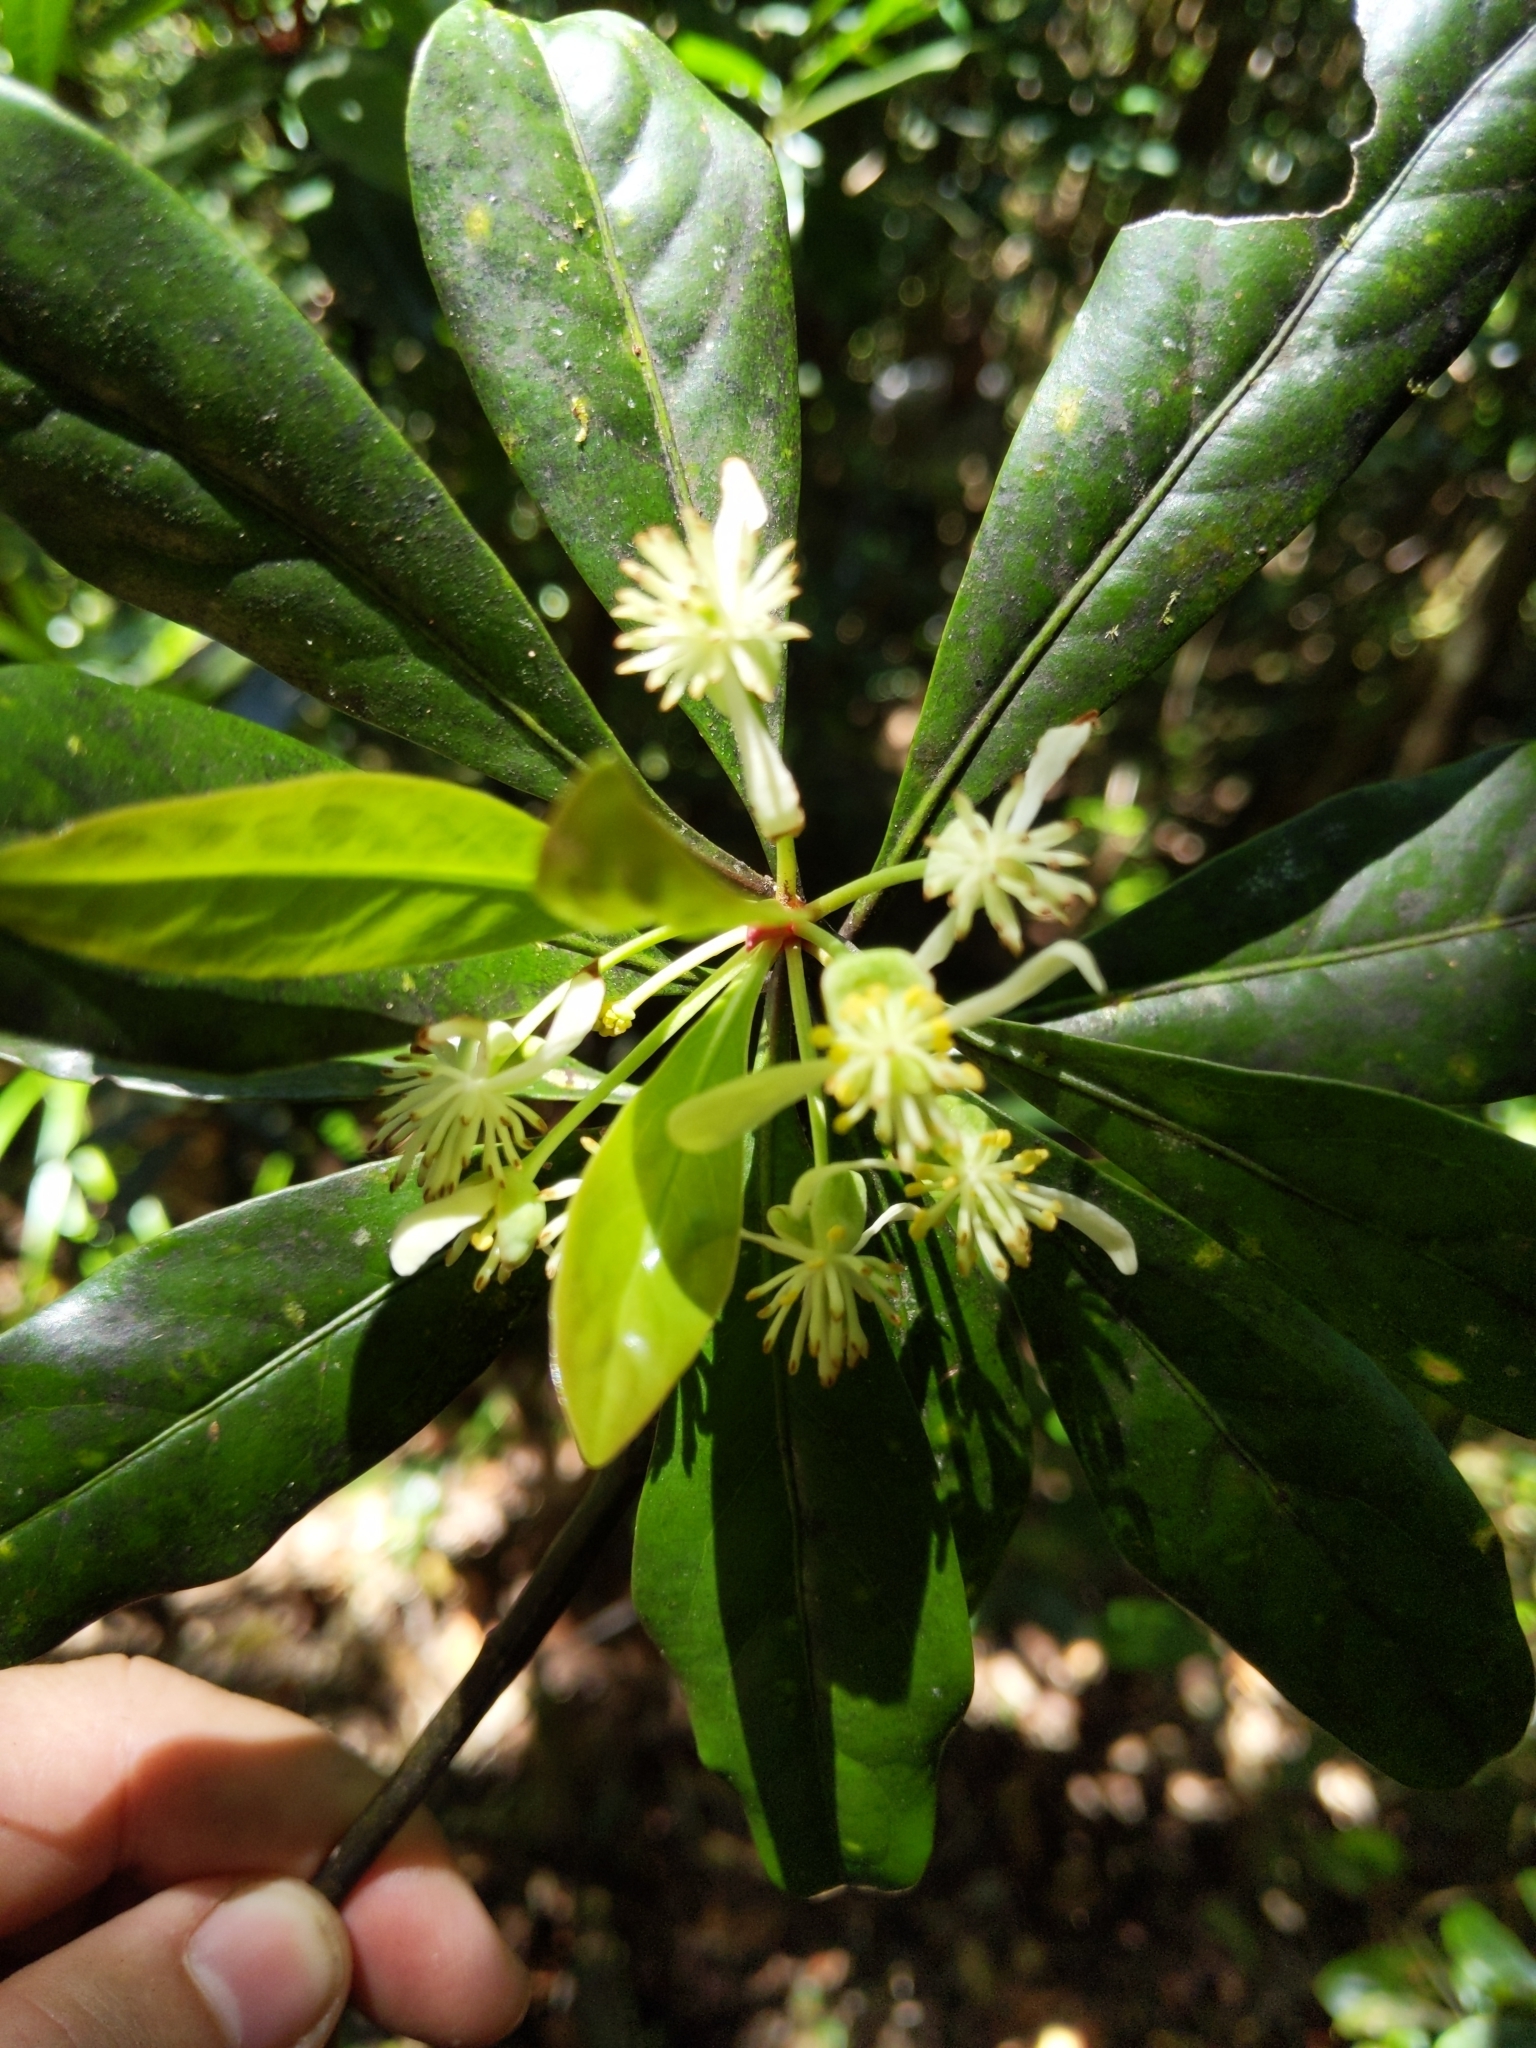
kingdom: Plantae
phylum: Tracheophyta
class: Magnoliopsida
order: Canellales
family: Winteraceae
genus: Drimys
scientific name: Drimys membranea
